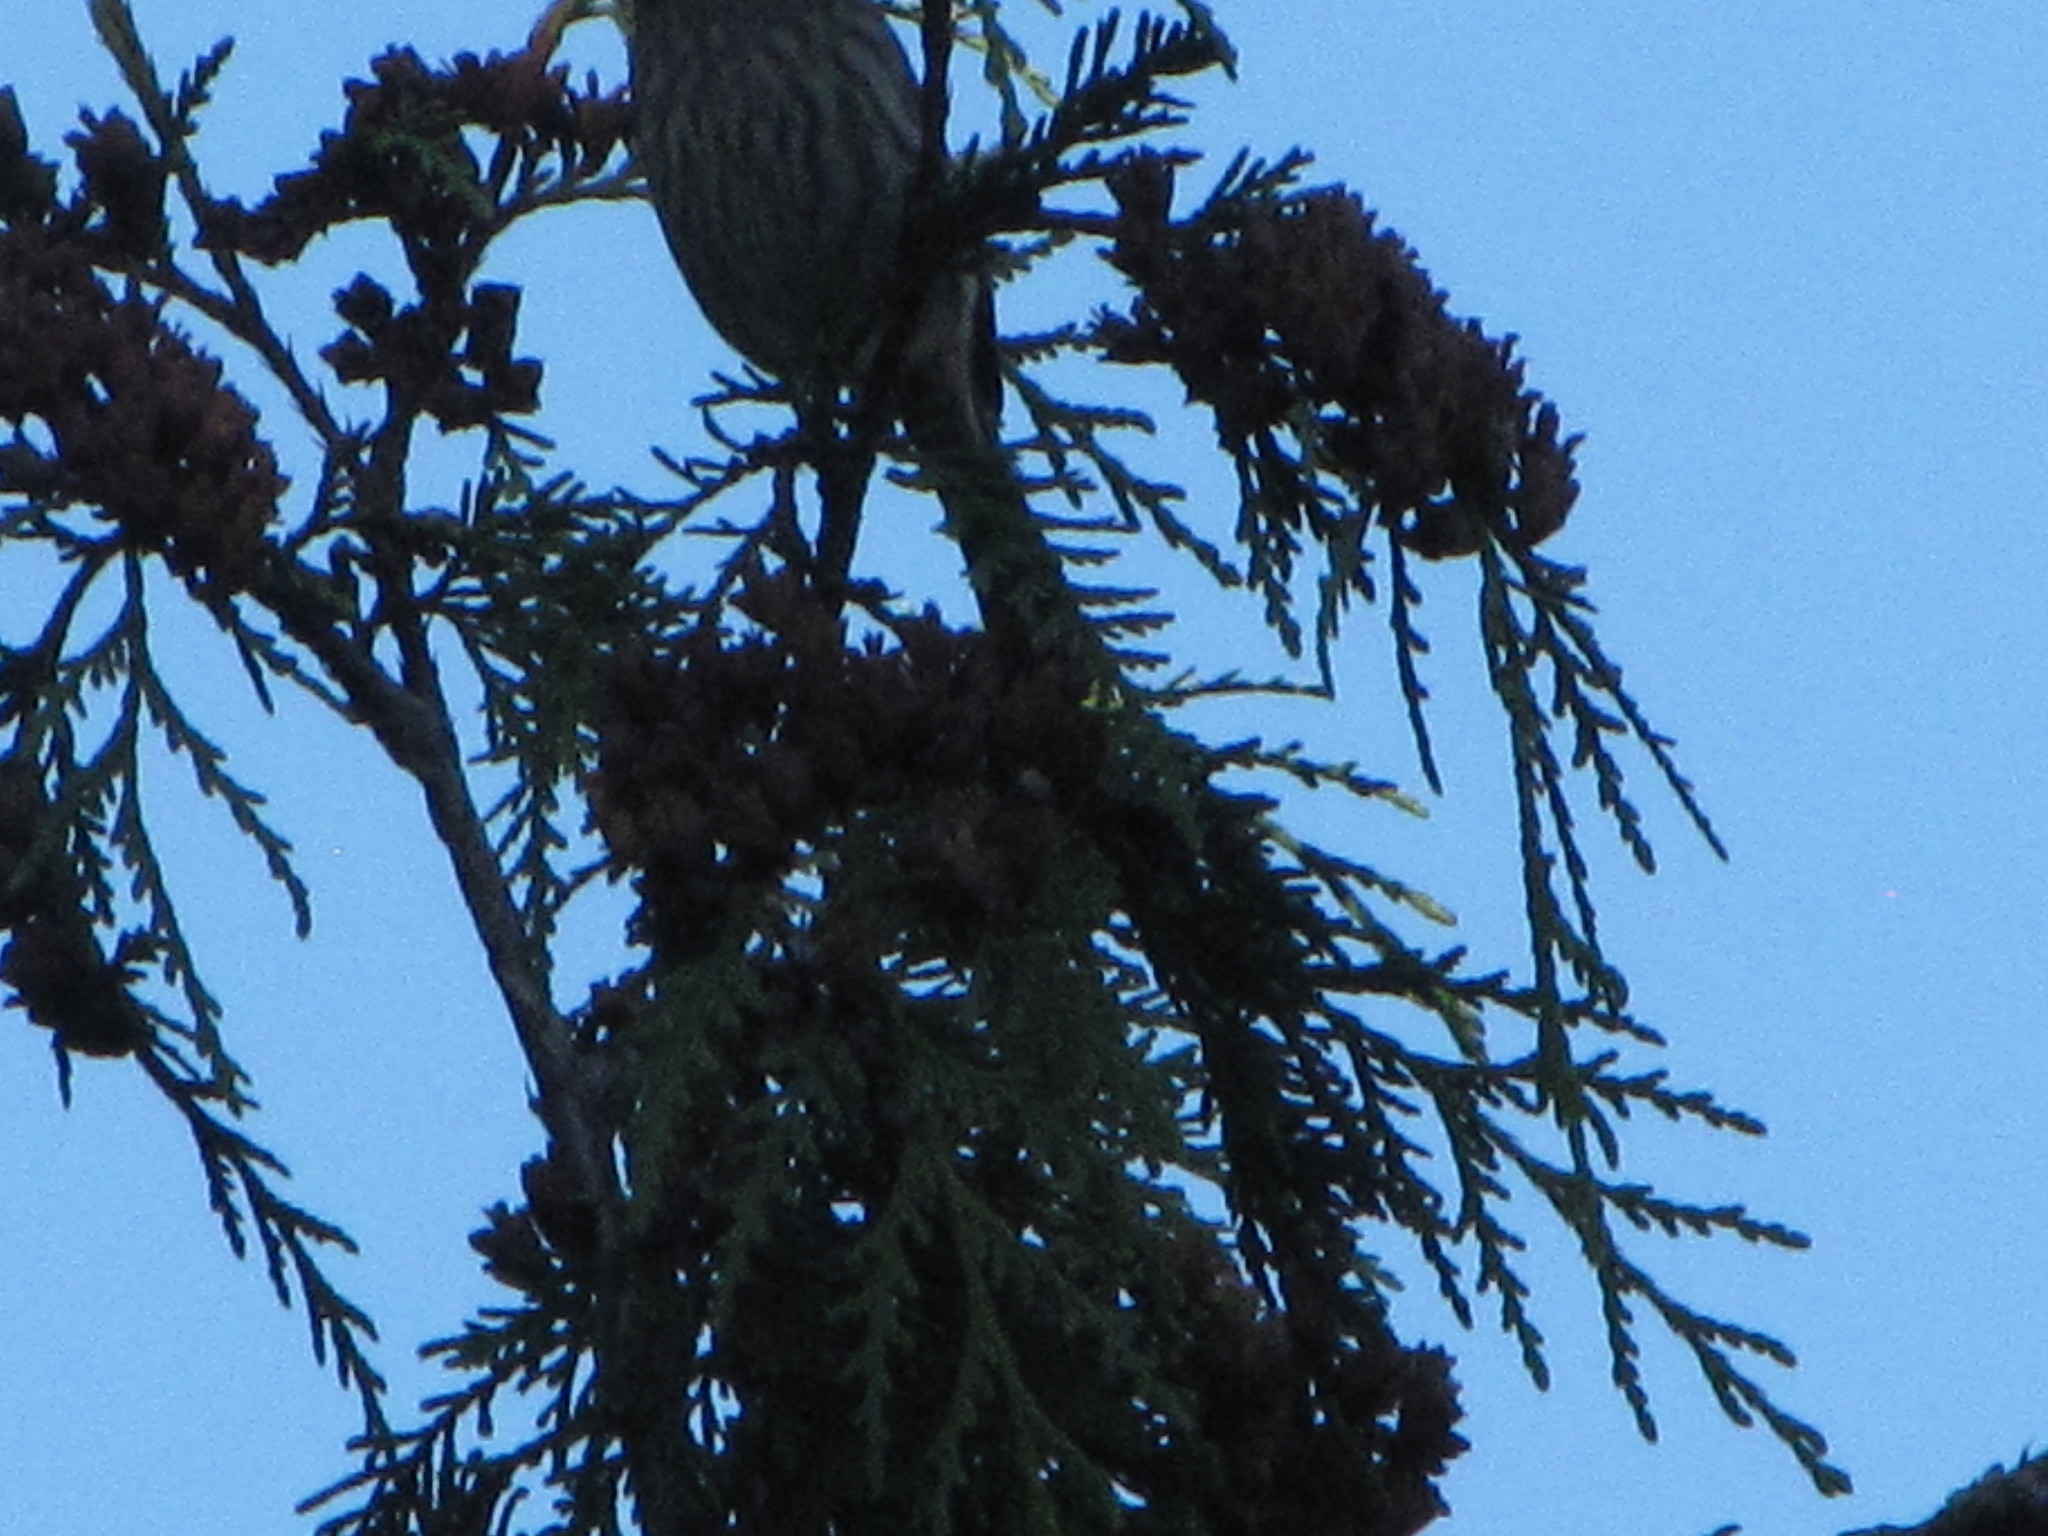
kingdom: Animalia
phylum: Chordata
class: Aves
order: Passeriformes
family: Fringillidae
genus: Haemorhous
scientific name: Haemorhous mexicanus
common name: House finch
